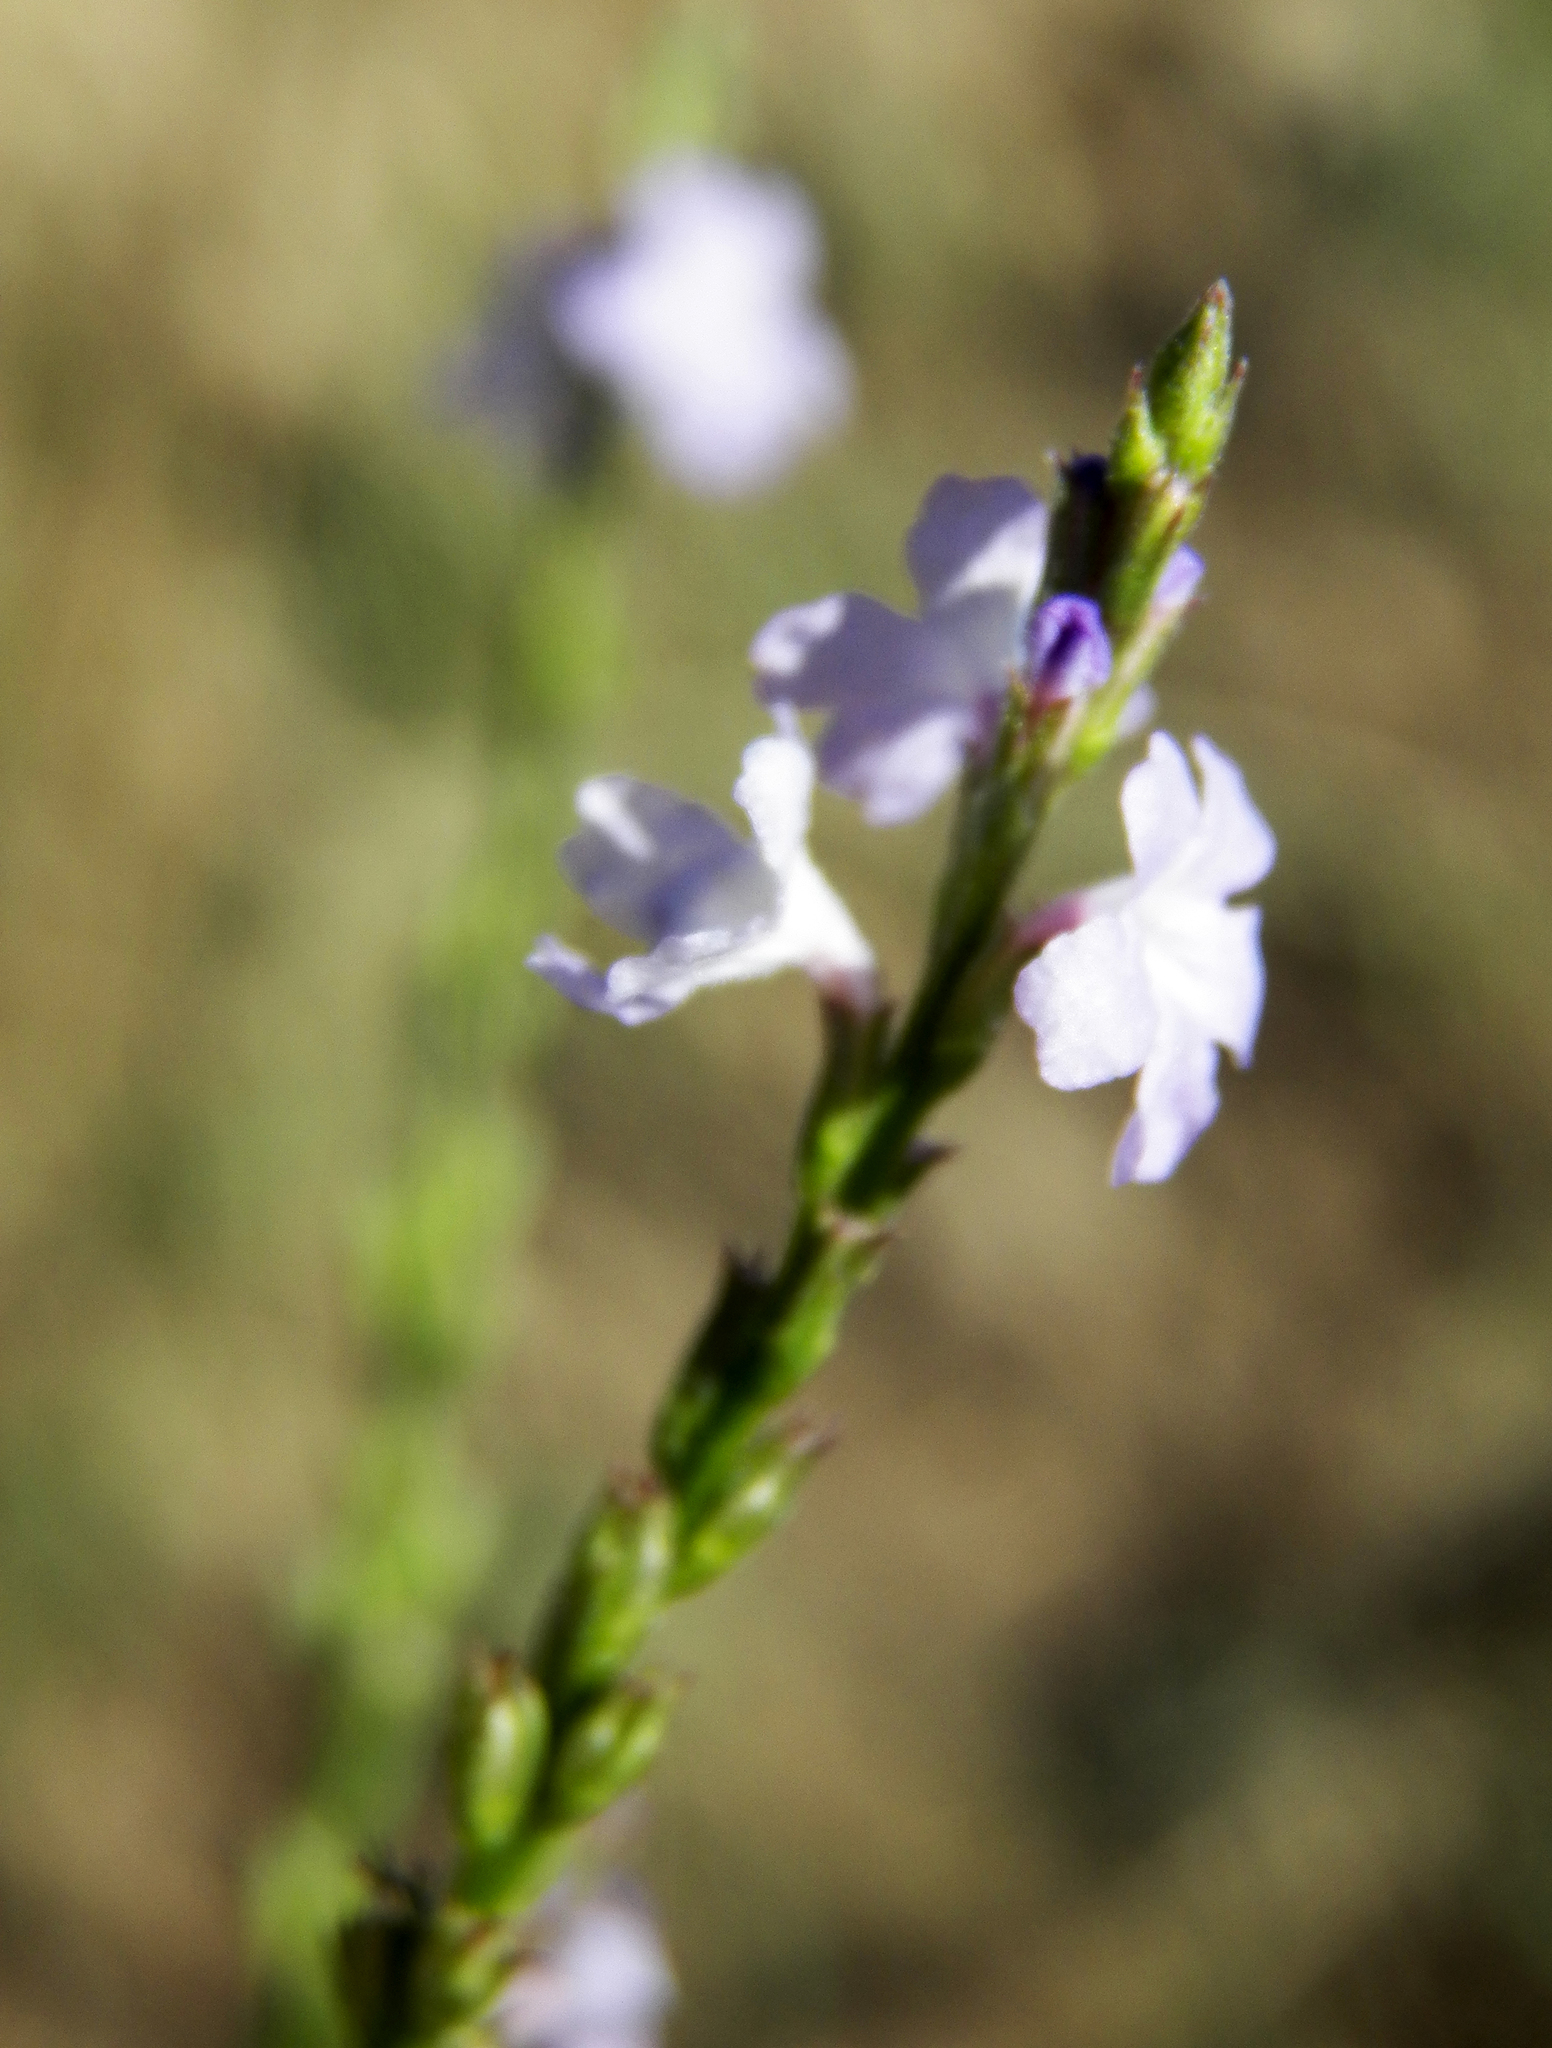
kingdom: Plantae
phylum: Tracheophyta
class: Magnoliopsida
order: Lamiales
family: Verbenaceae
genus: Verbena
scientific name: Verbena halei
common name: Texas vervain
